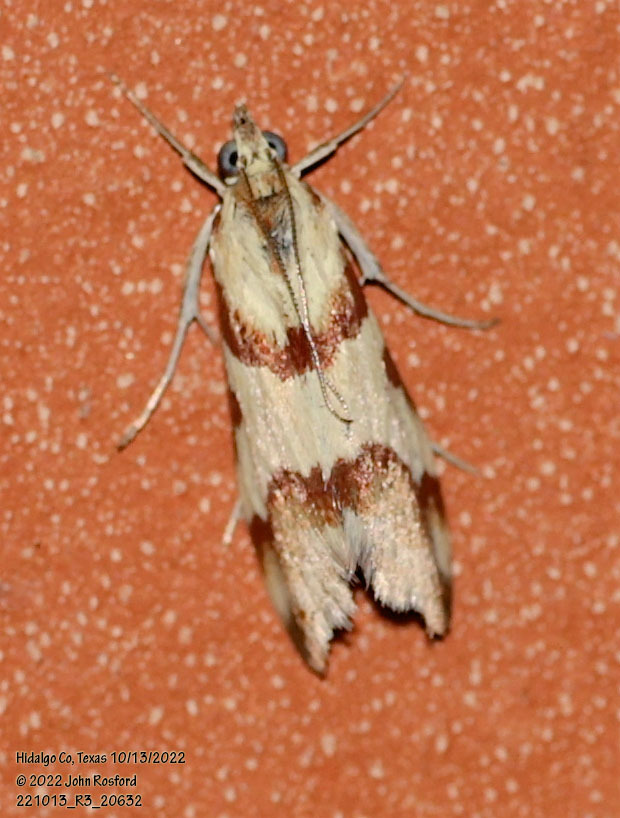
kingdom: Animalia
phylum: Arthropoda
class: Insecta
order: Lepidoptera
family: Crambidae
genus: Noctuelia
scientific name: Noctuelia Mimoschinia rufofascialis
